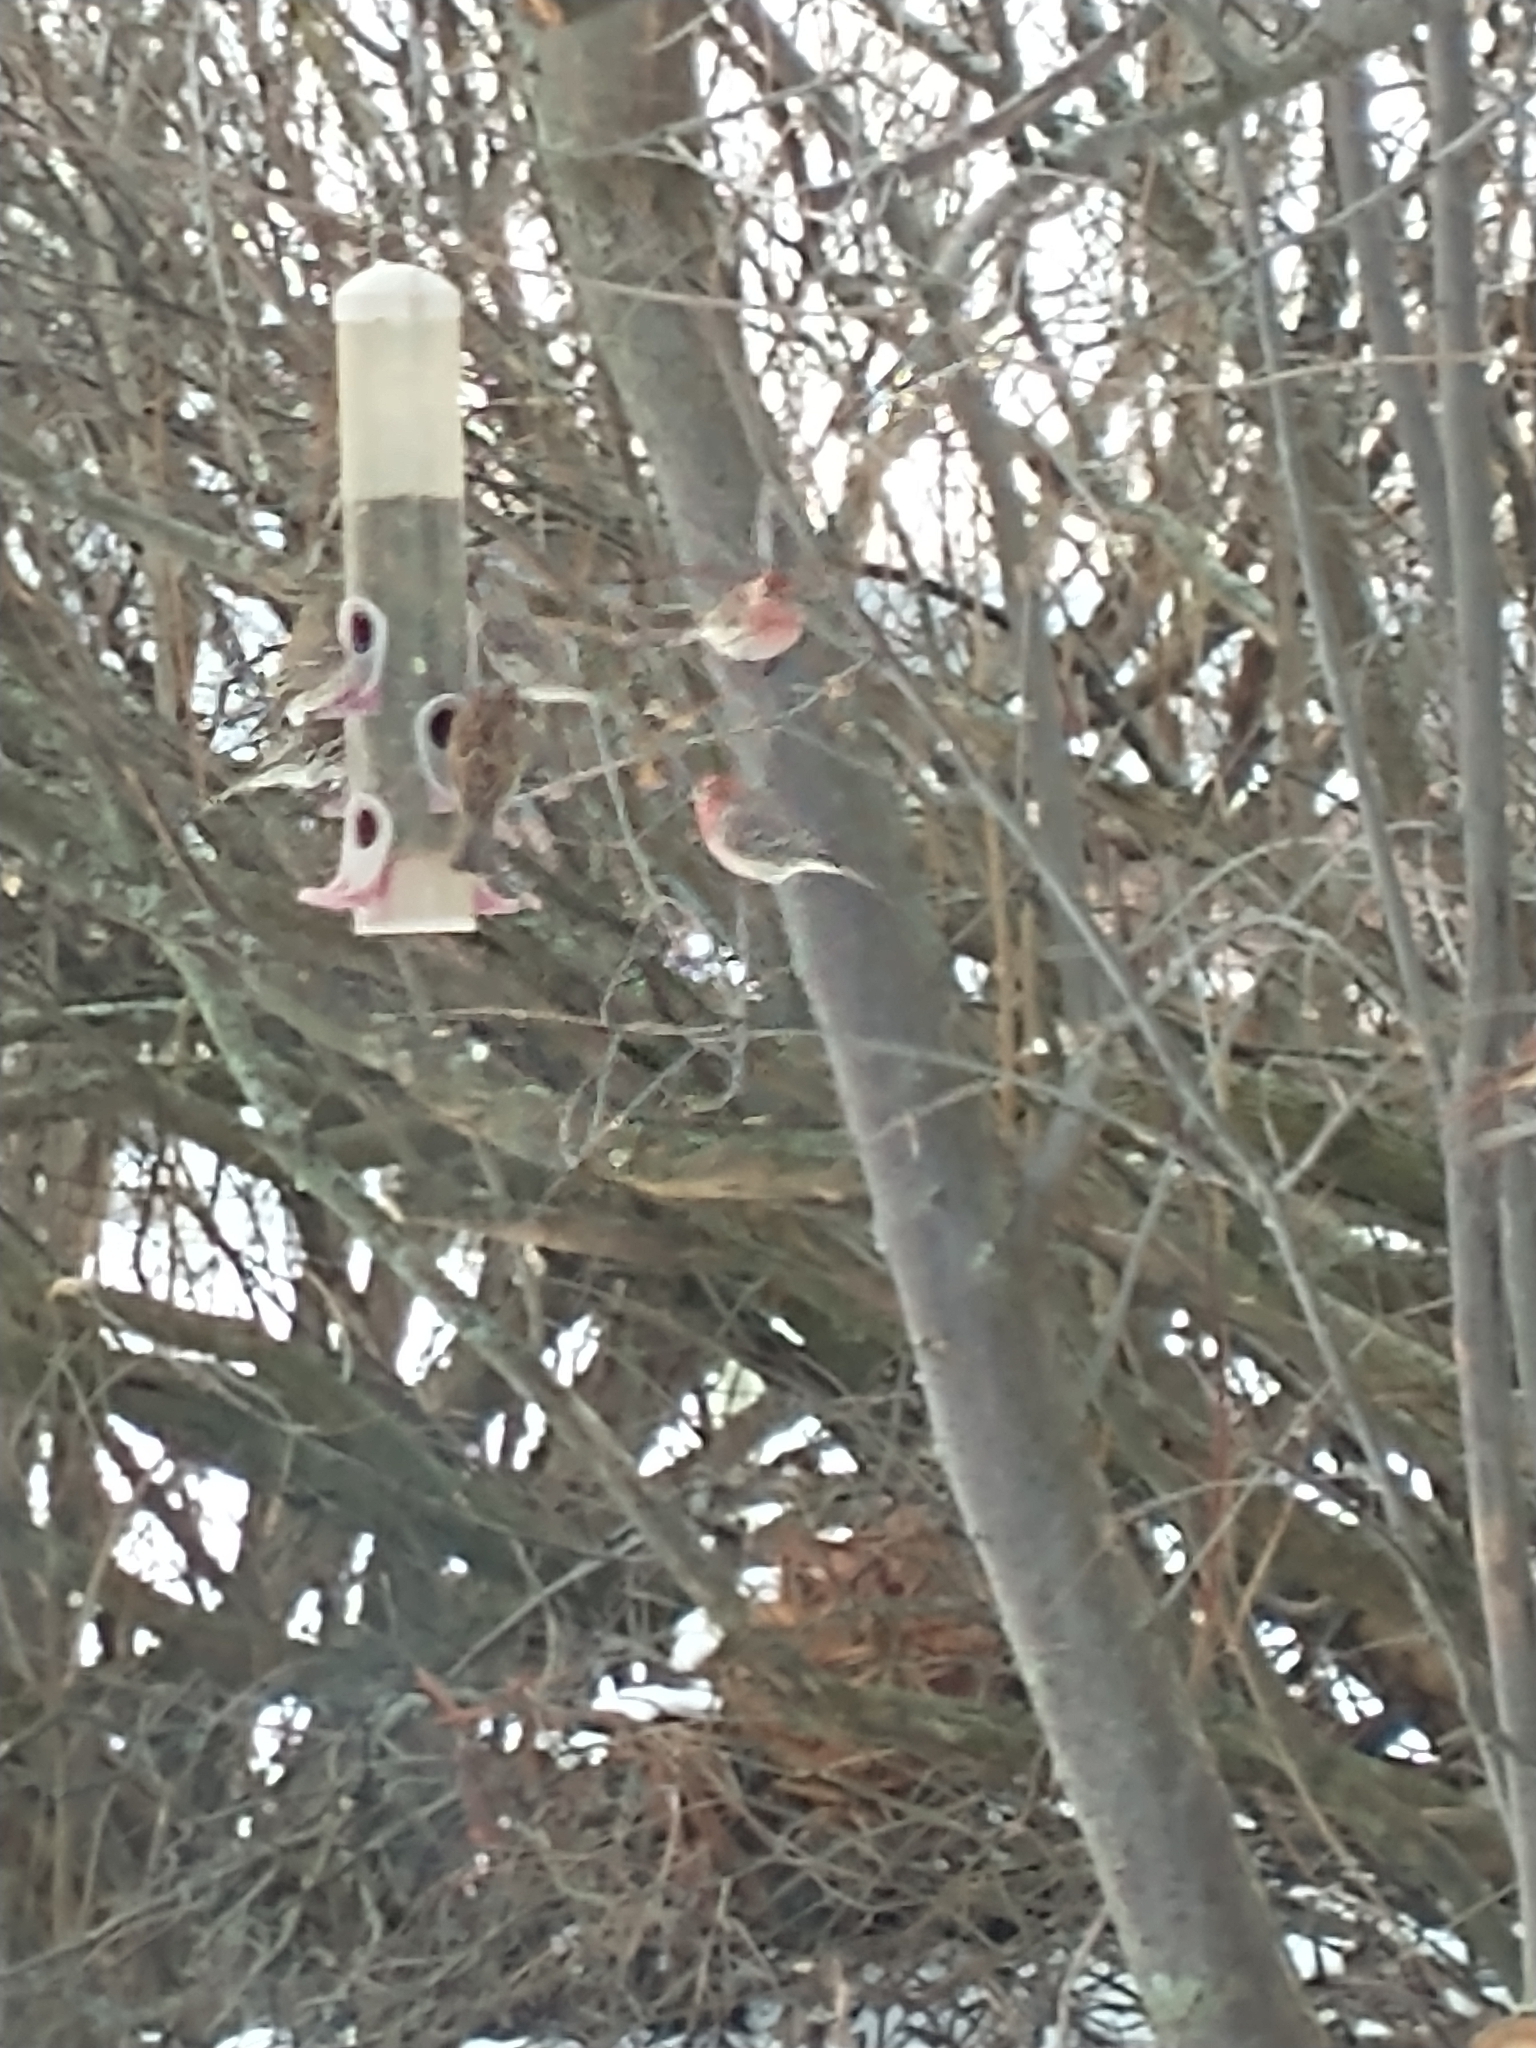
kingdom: Animalia
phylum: Chordata
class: Aves
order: Passeriformes
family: Fringillidae
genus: Haemorhous
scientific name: Haemorhous mexicanus
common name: House finch
